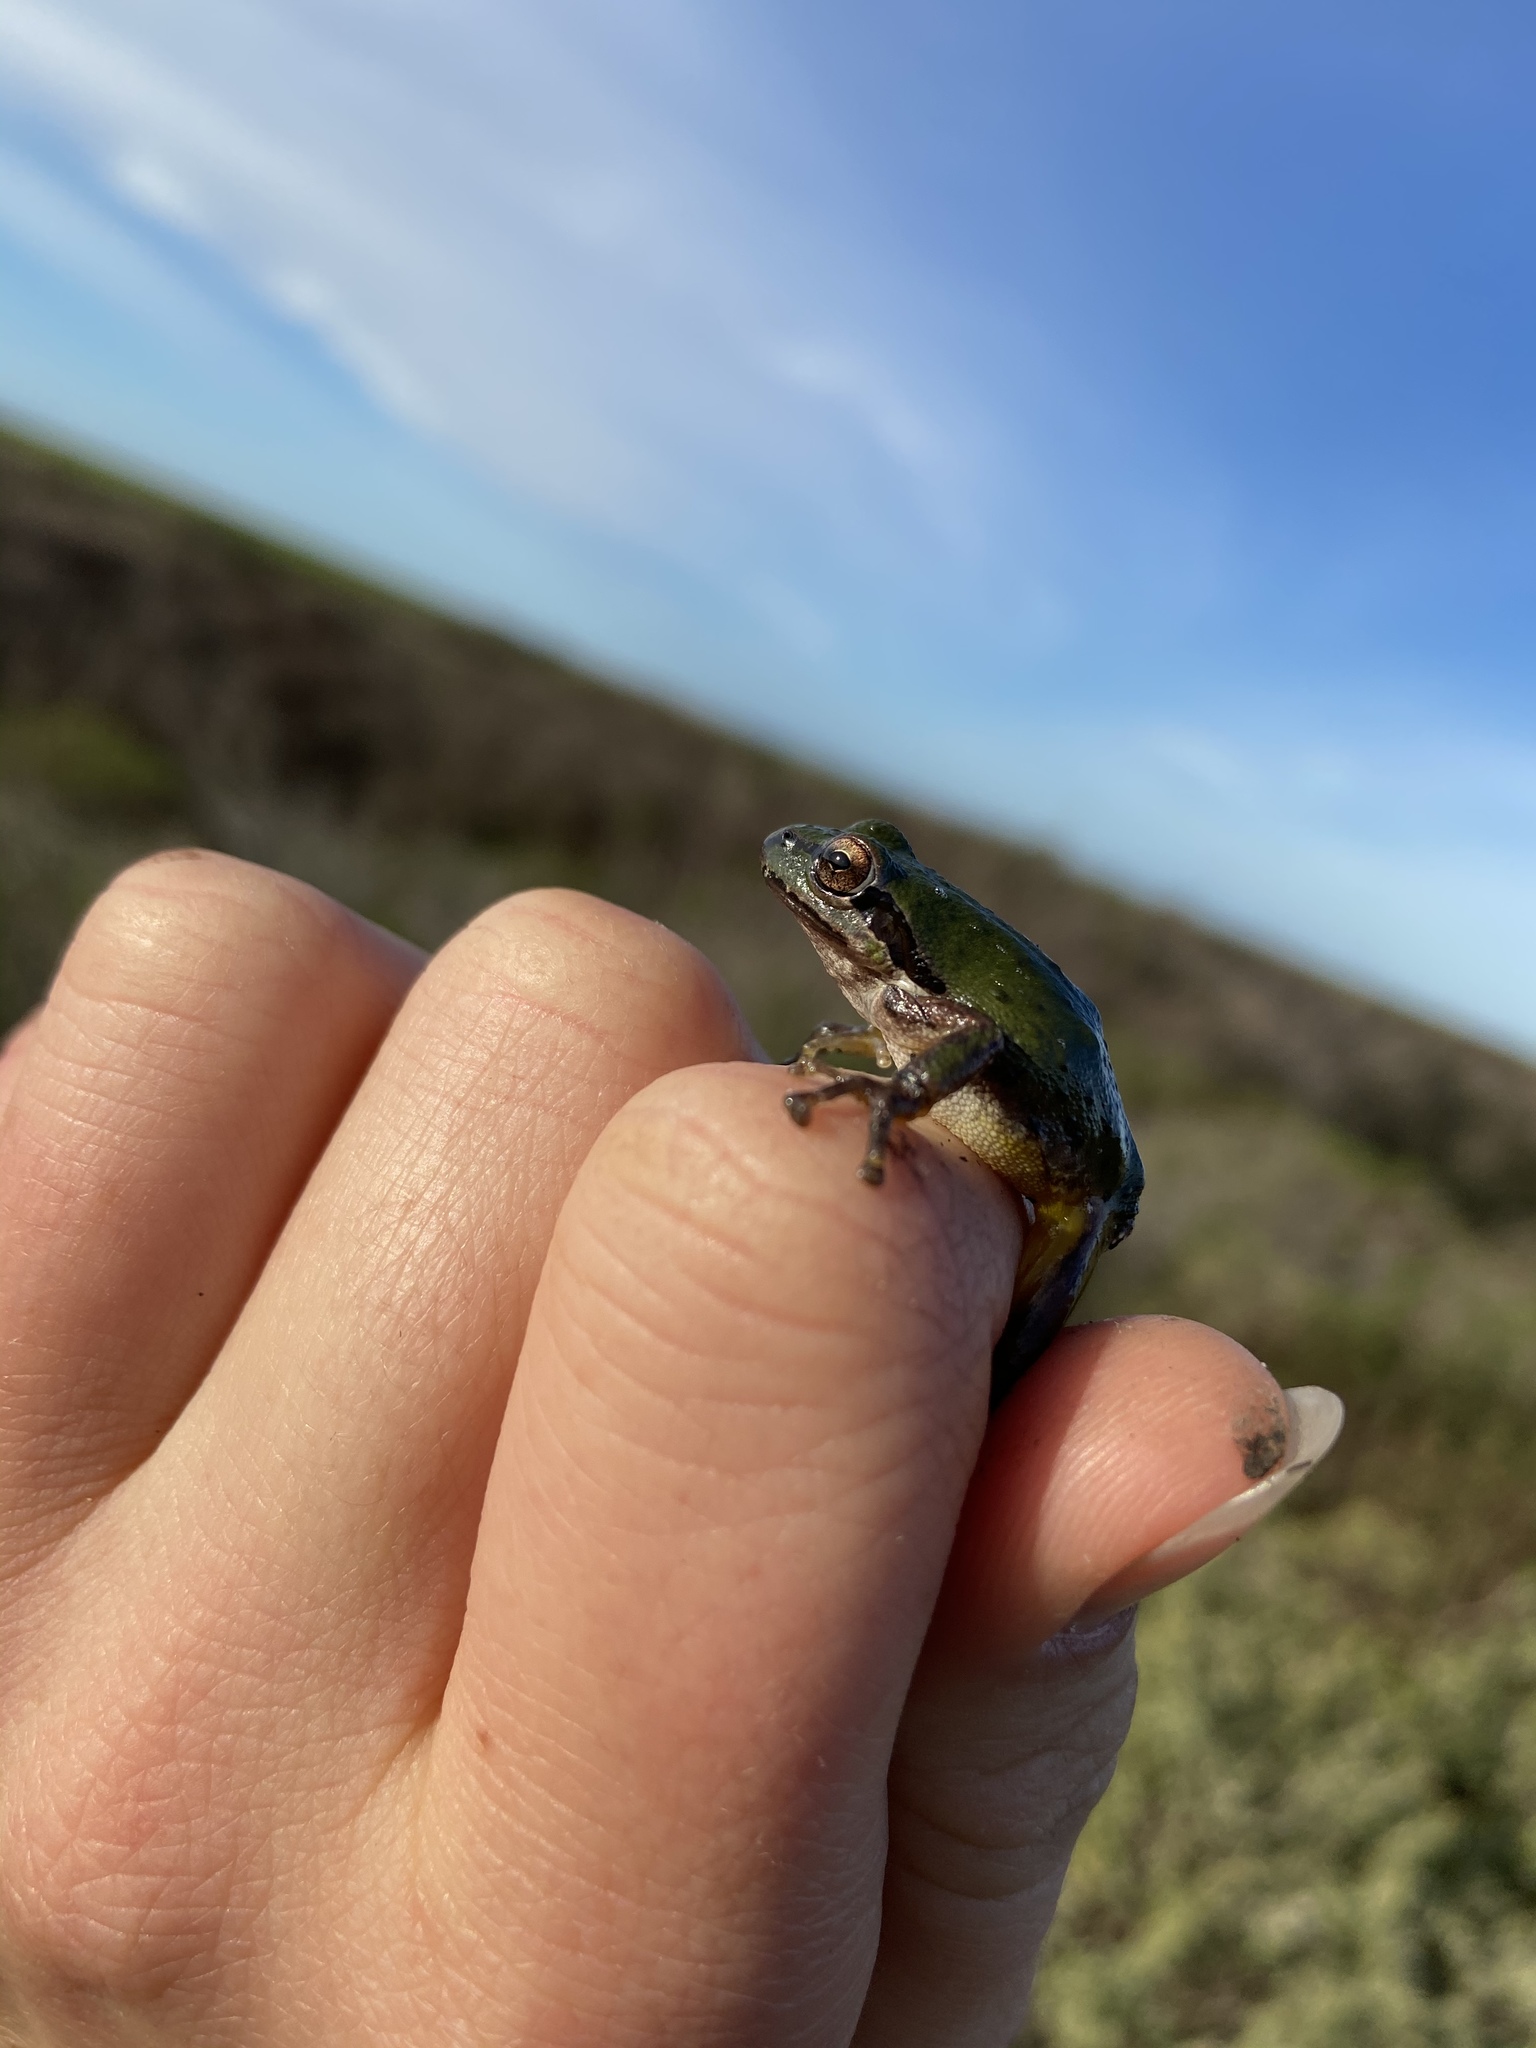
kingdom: Animalia
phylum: Chordata
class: Amphibia
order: Anura
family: Hylidae
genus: Pseudacris
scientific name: Pseudacris regilla
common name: Pacific chorus frog
